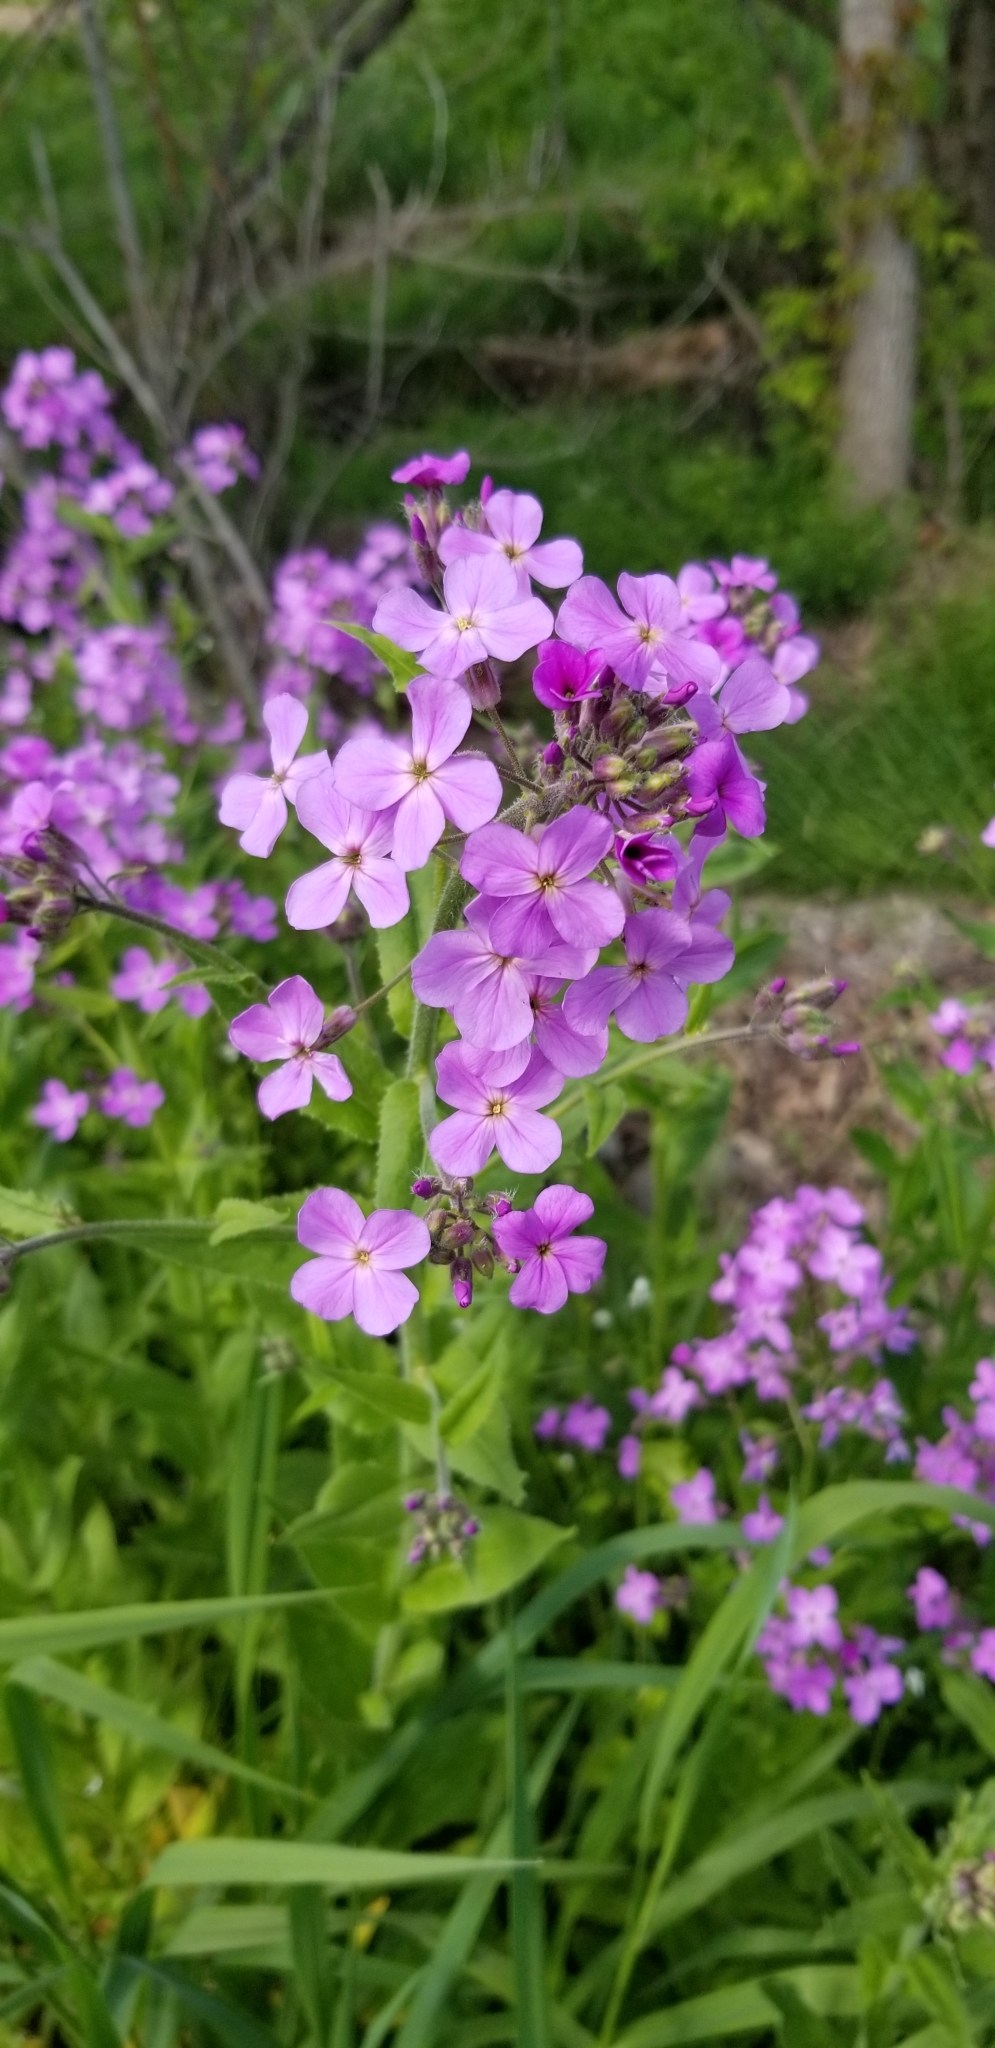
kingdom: Plantae
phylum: Tracheophyta
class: Magnoliopsida
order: Brassicales
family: Brassicaceae
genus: Hesperis
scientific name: Hesperis matronalis
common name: Dame's-violet
